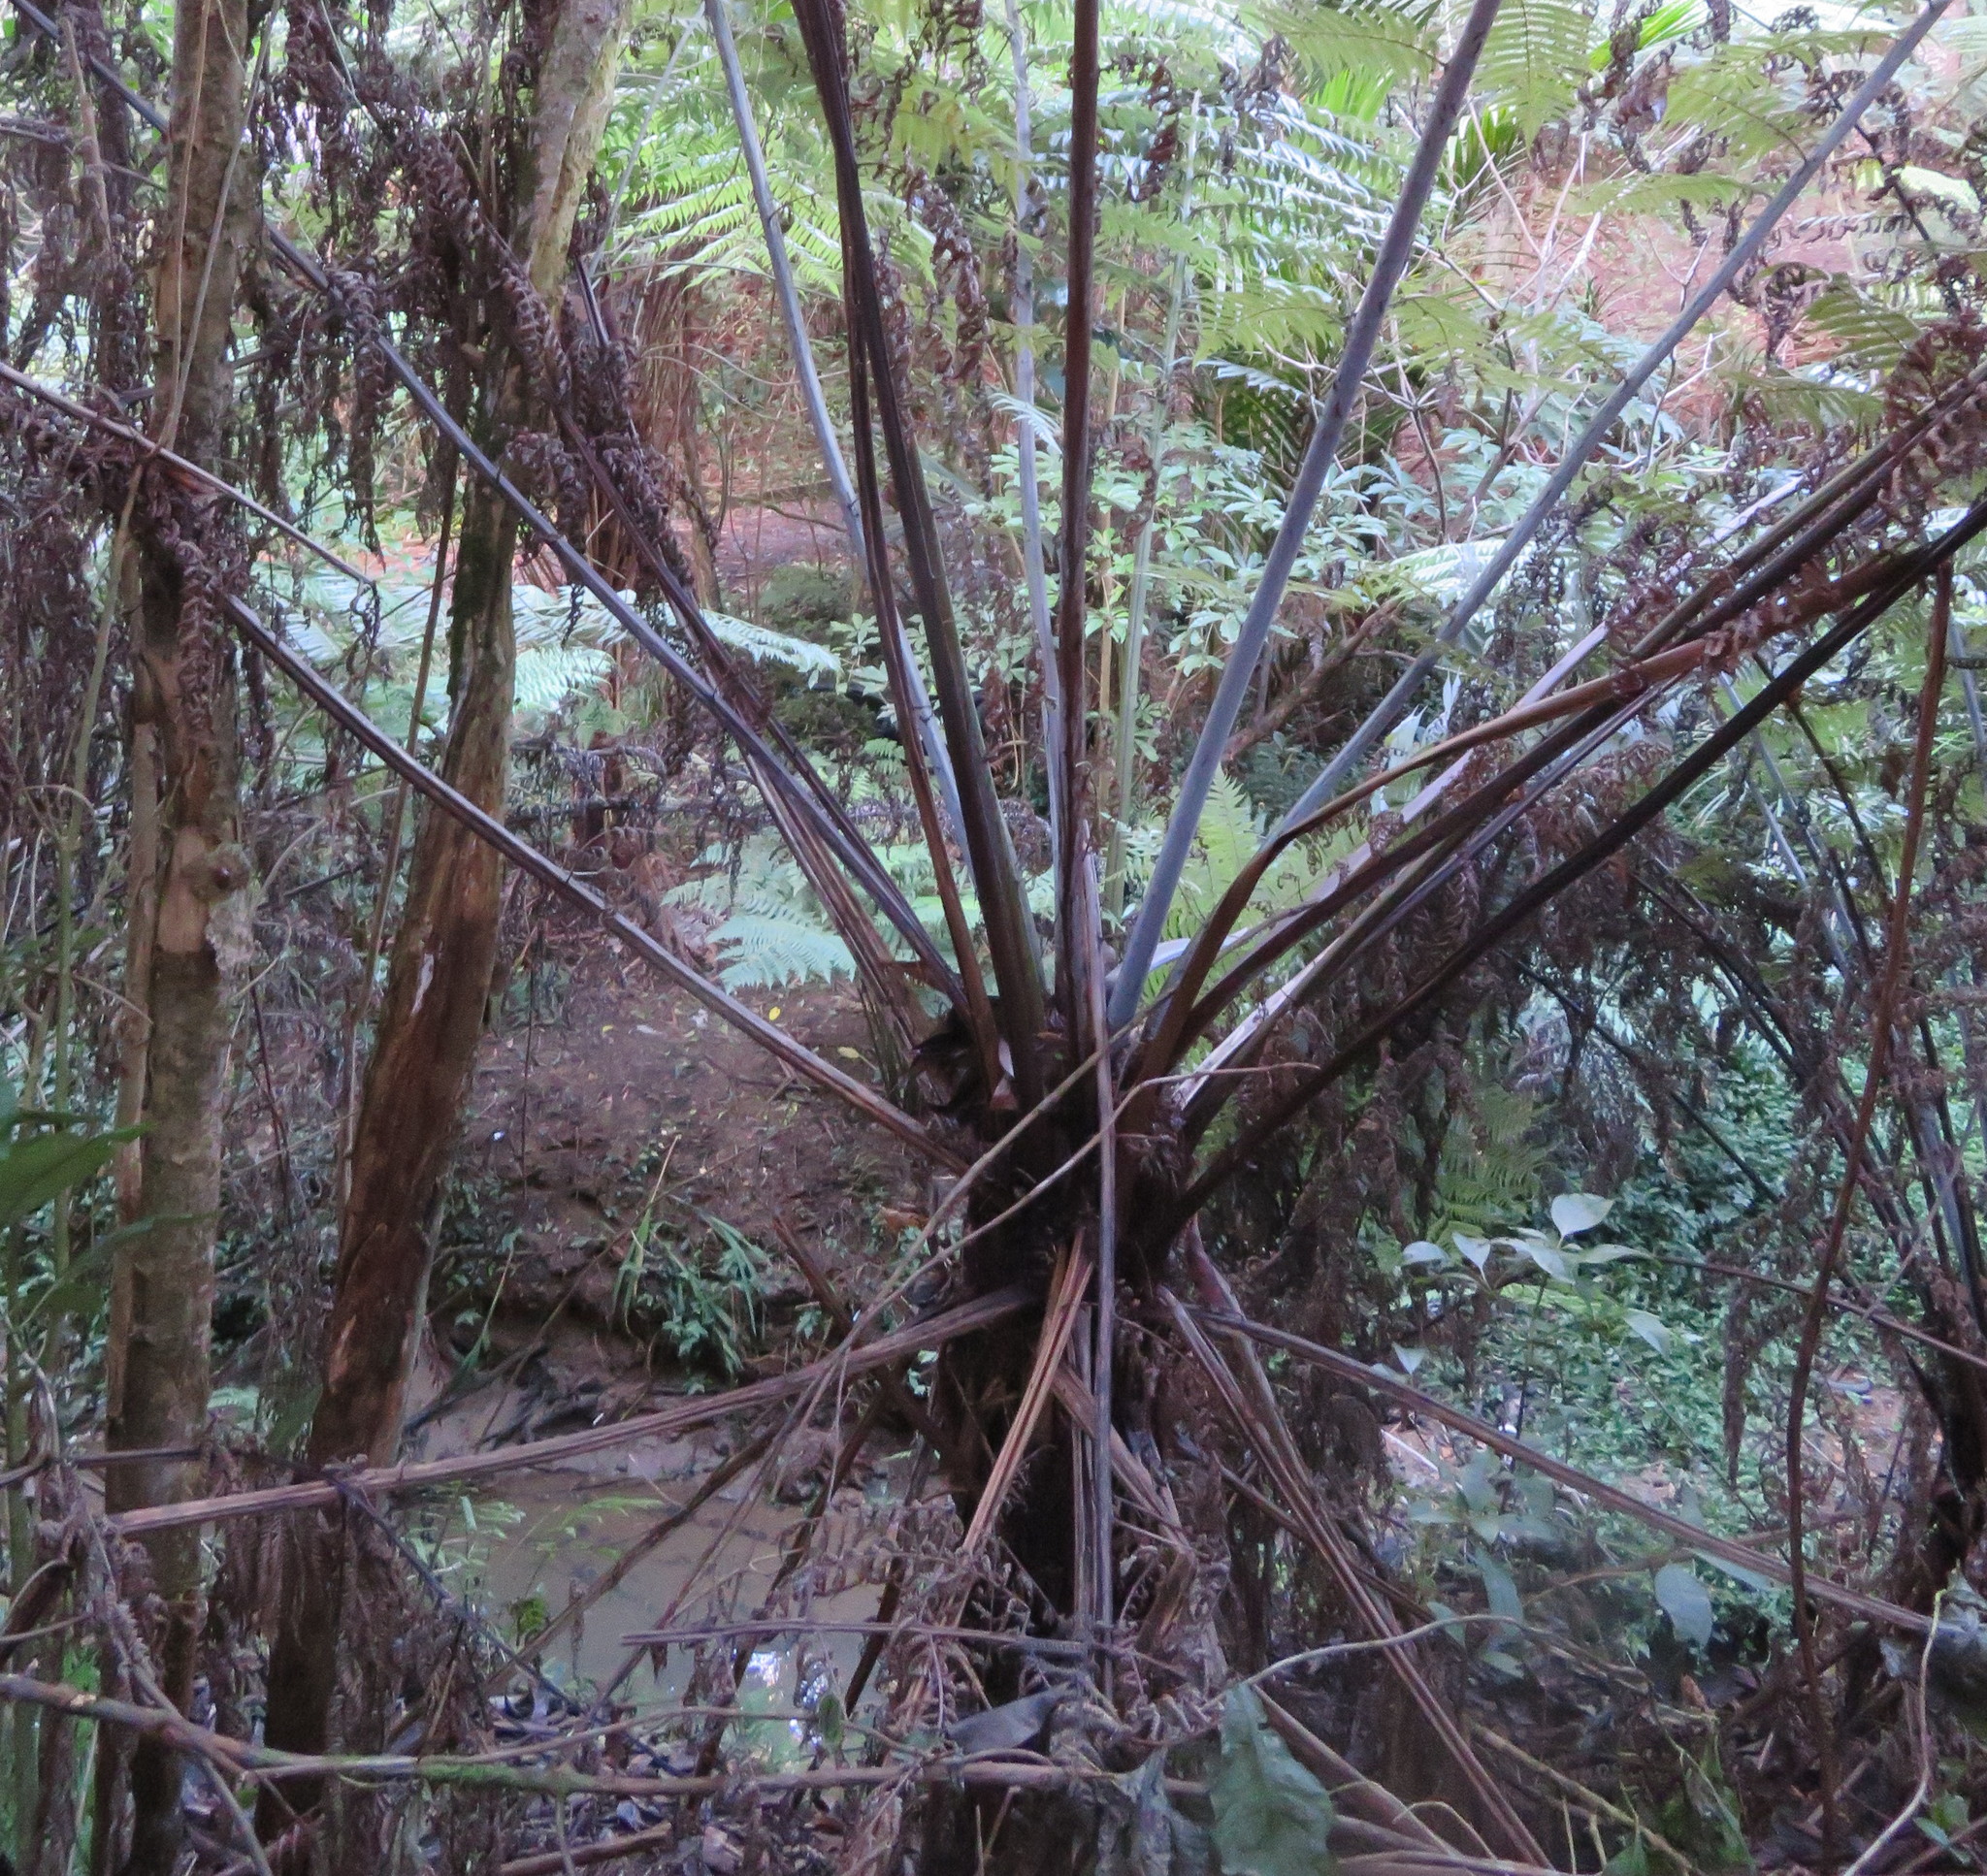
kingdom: Plantae
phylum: Tracheophyta
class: Magnoliopsida
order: Apiales
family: Araliaceae
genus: Schefflera
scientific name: Schefflera digitata
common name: Pate
